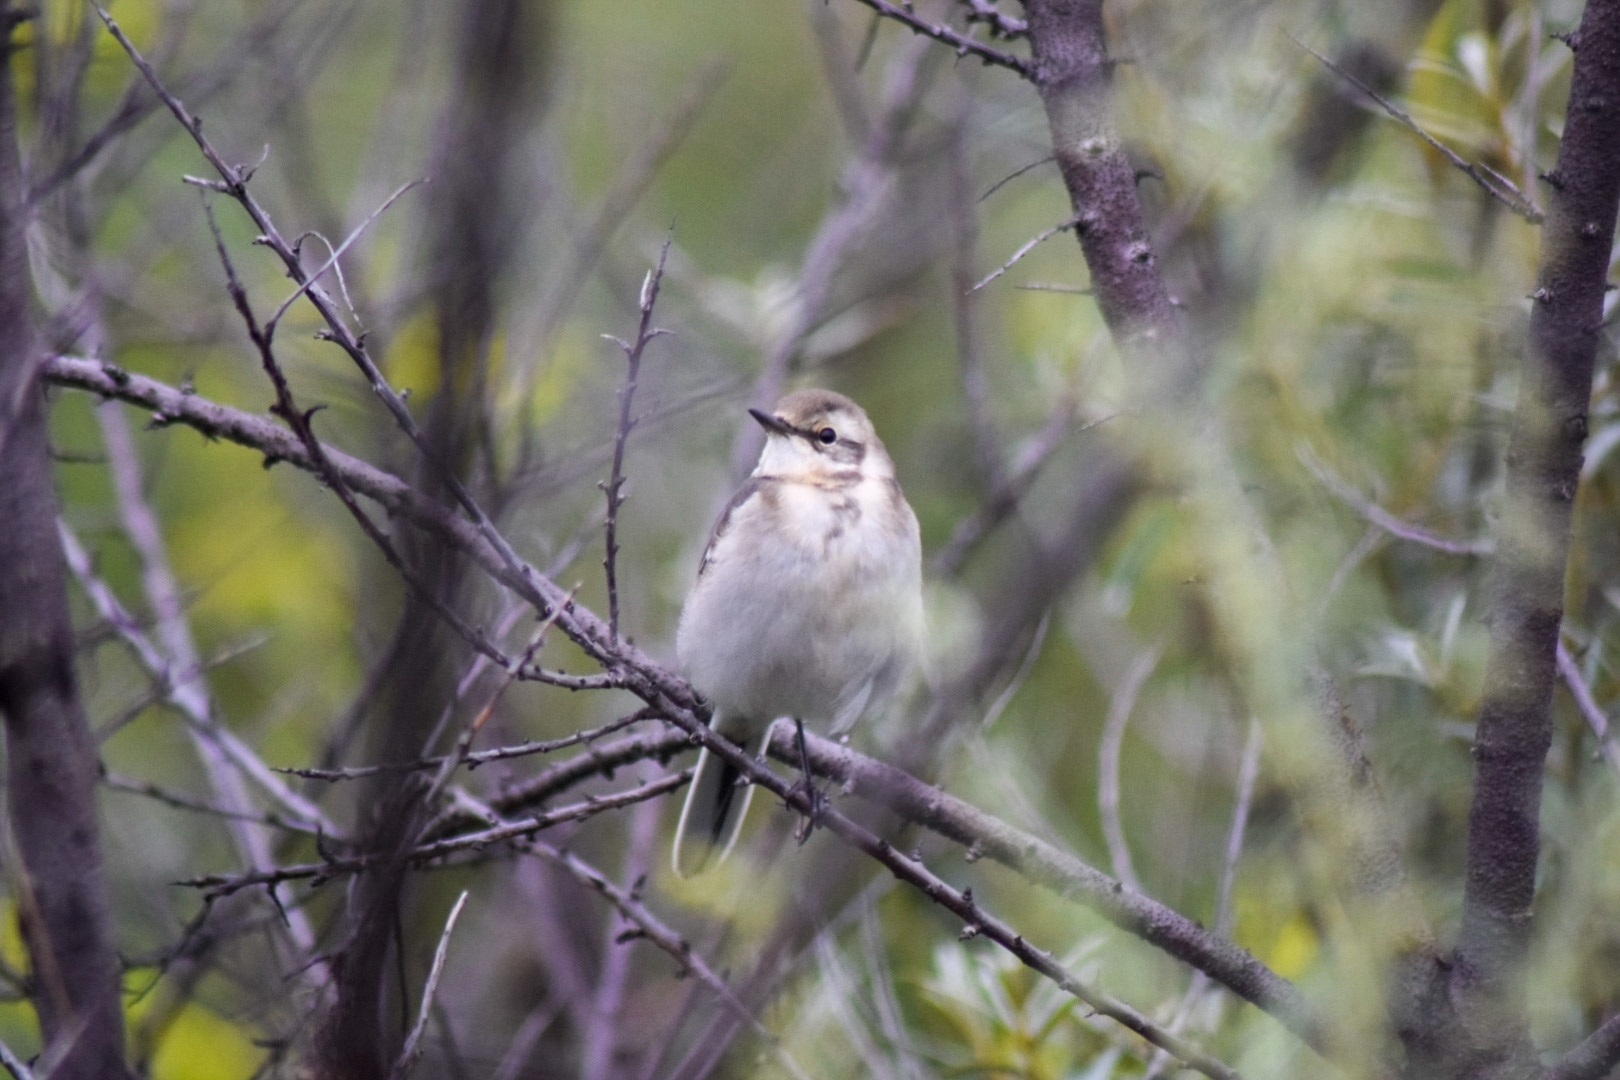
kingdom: Animalia
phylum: Chordata
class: Aves
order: Passeriformes
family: Motacillidae
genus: Motacilla
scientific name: Motacilla citreola
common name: Citrine wagtail
